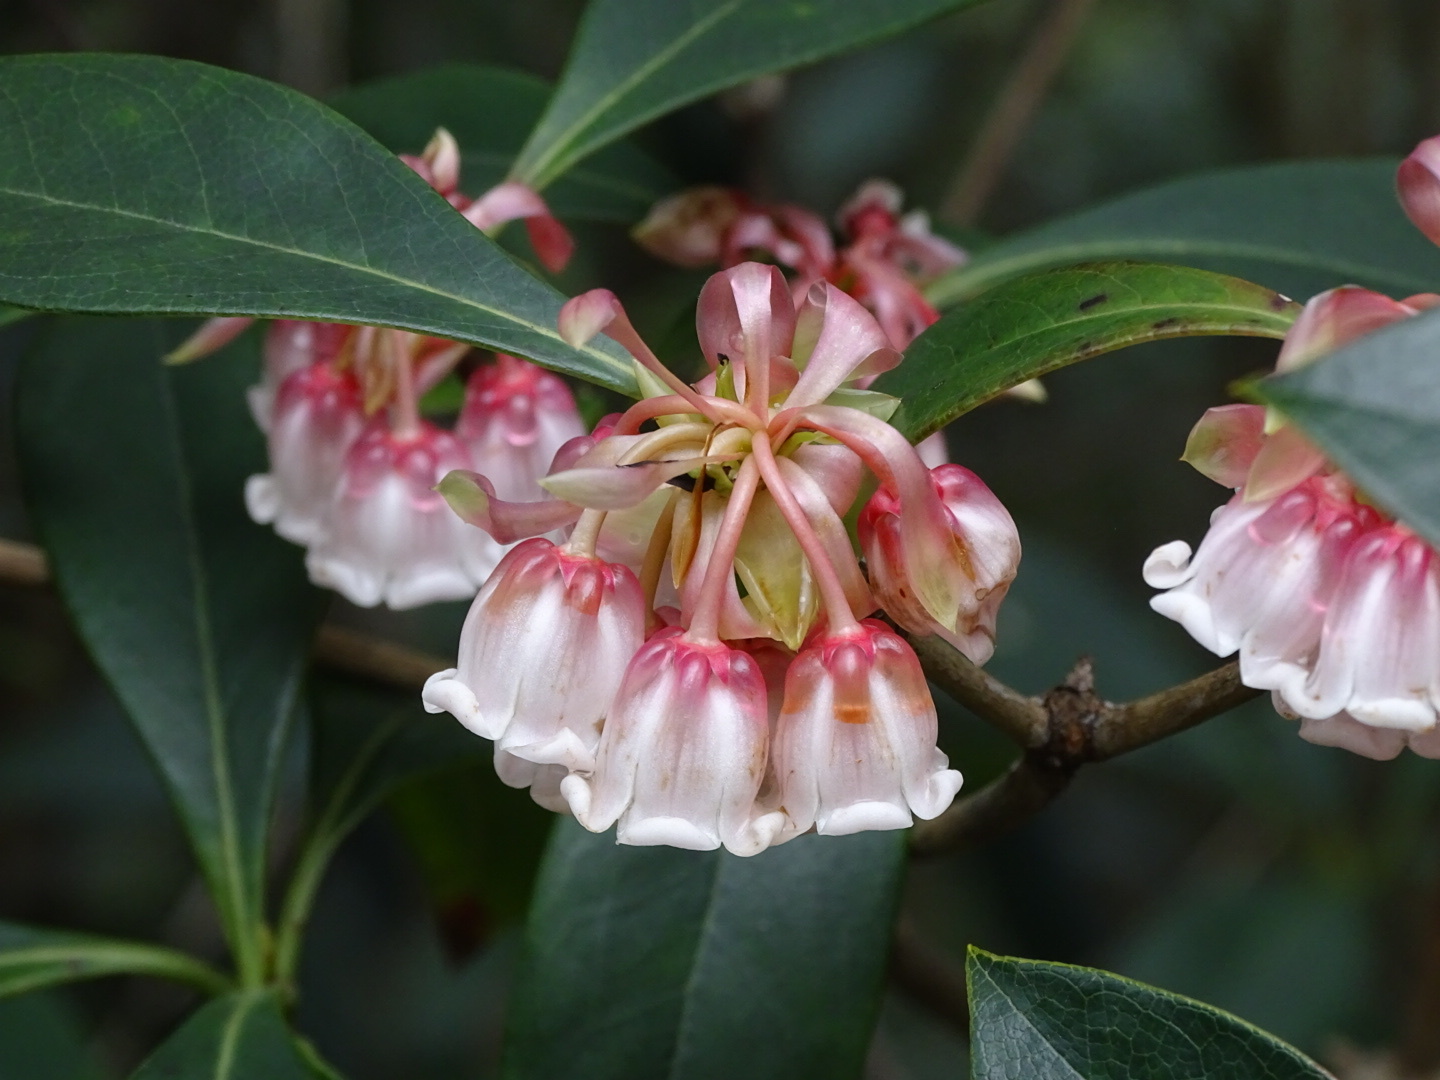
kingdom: Plantae
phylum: Tracheophyta
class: Magnoliopsida
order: Ericales
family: Ericaceae
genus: Enkianthus
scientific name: Enkianthus quinqueflorus
